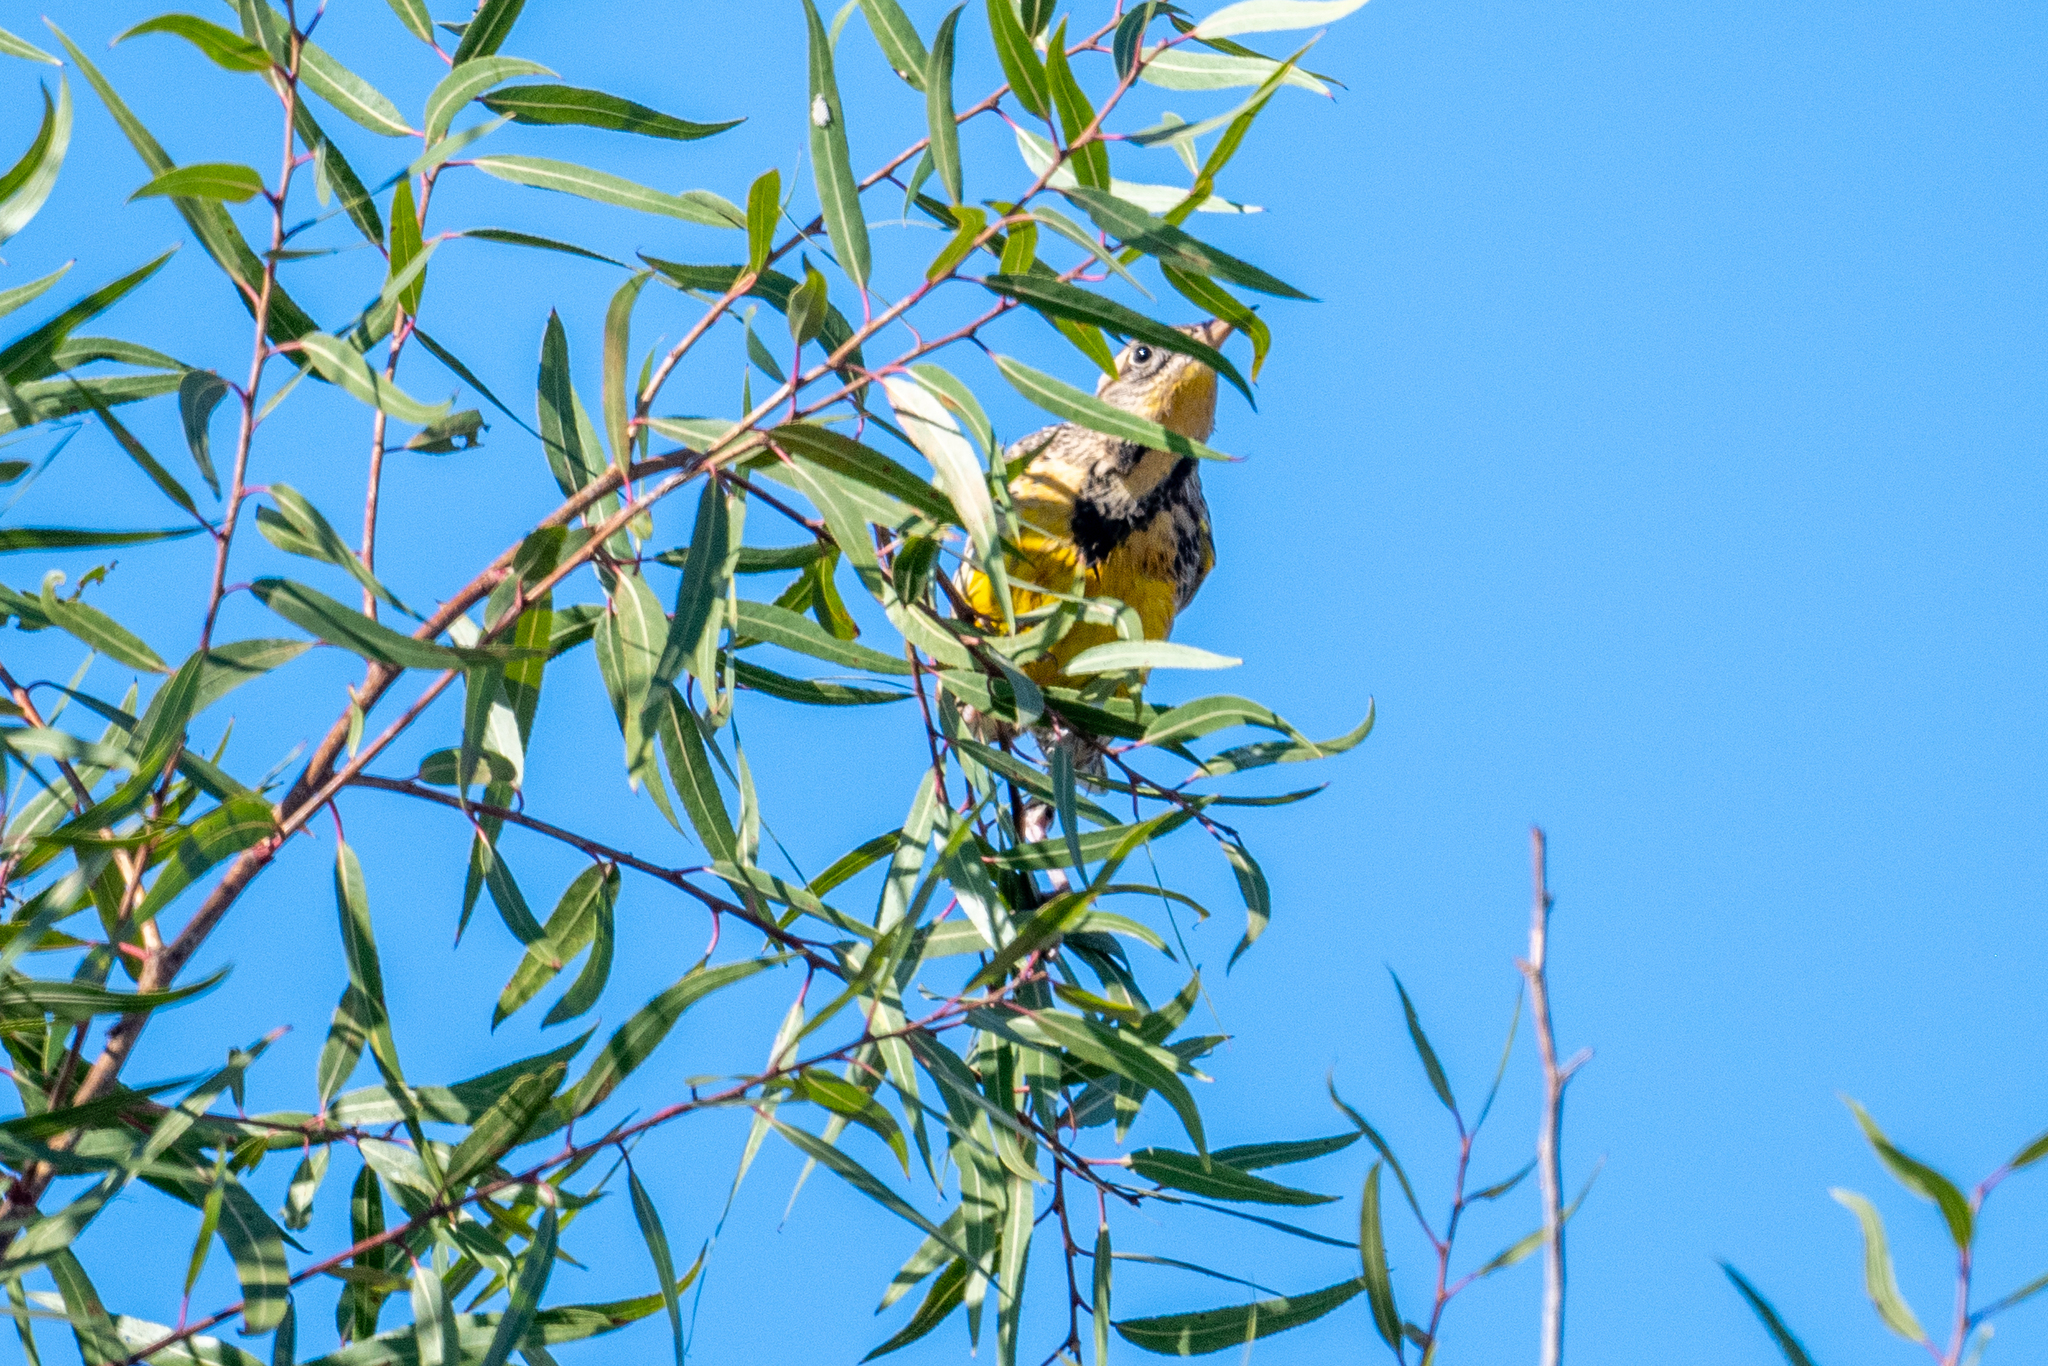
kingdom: Animalia
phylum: Chordata
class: Aves
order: Passeriformes
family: Icteridae
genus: Sturnella
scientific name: Sturnella neglecta
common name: Western meadowlark
